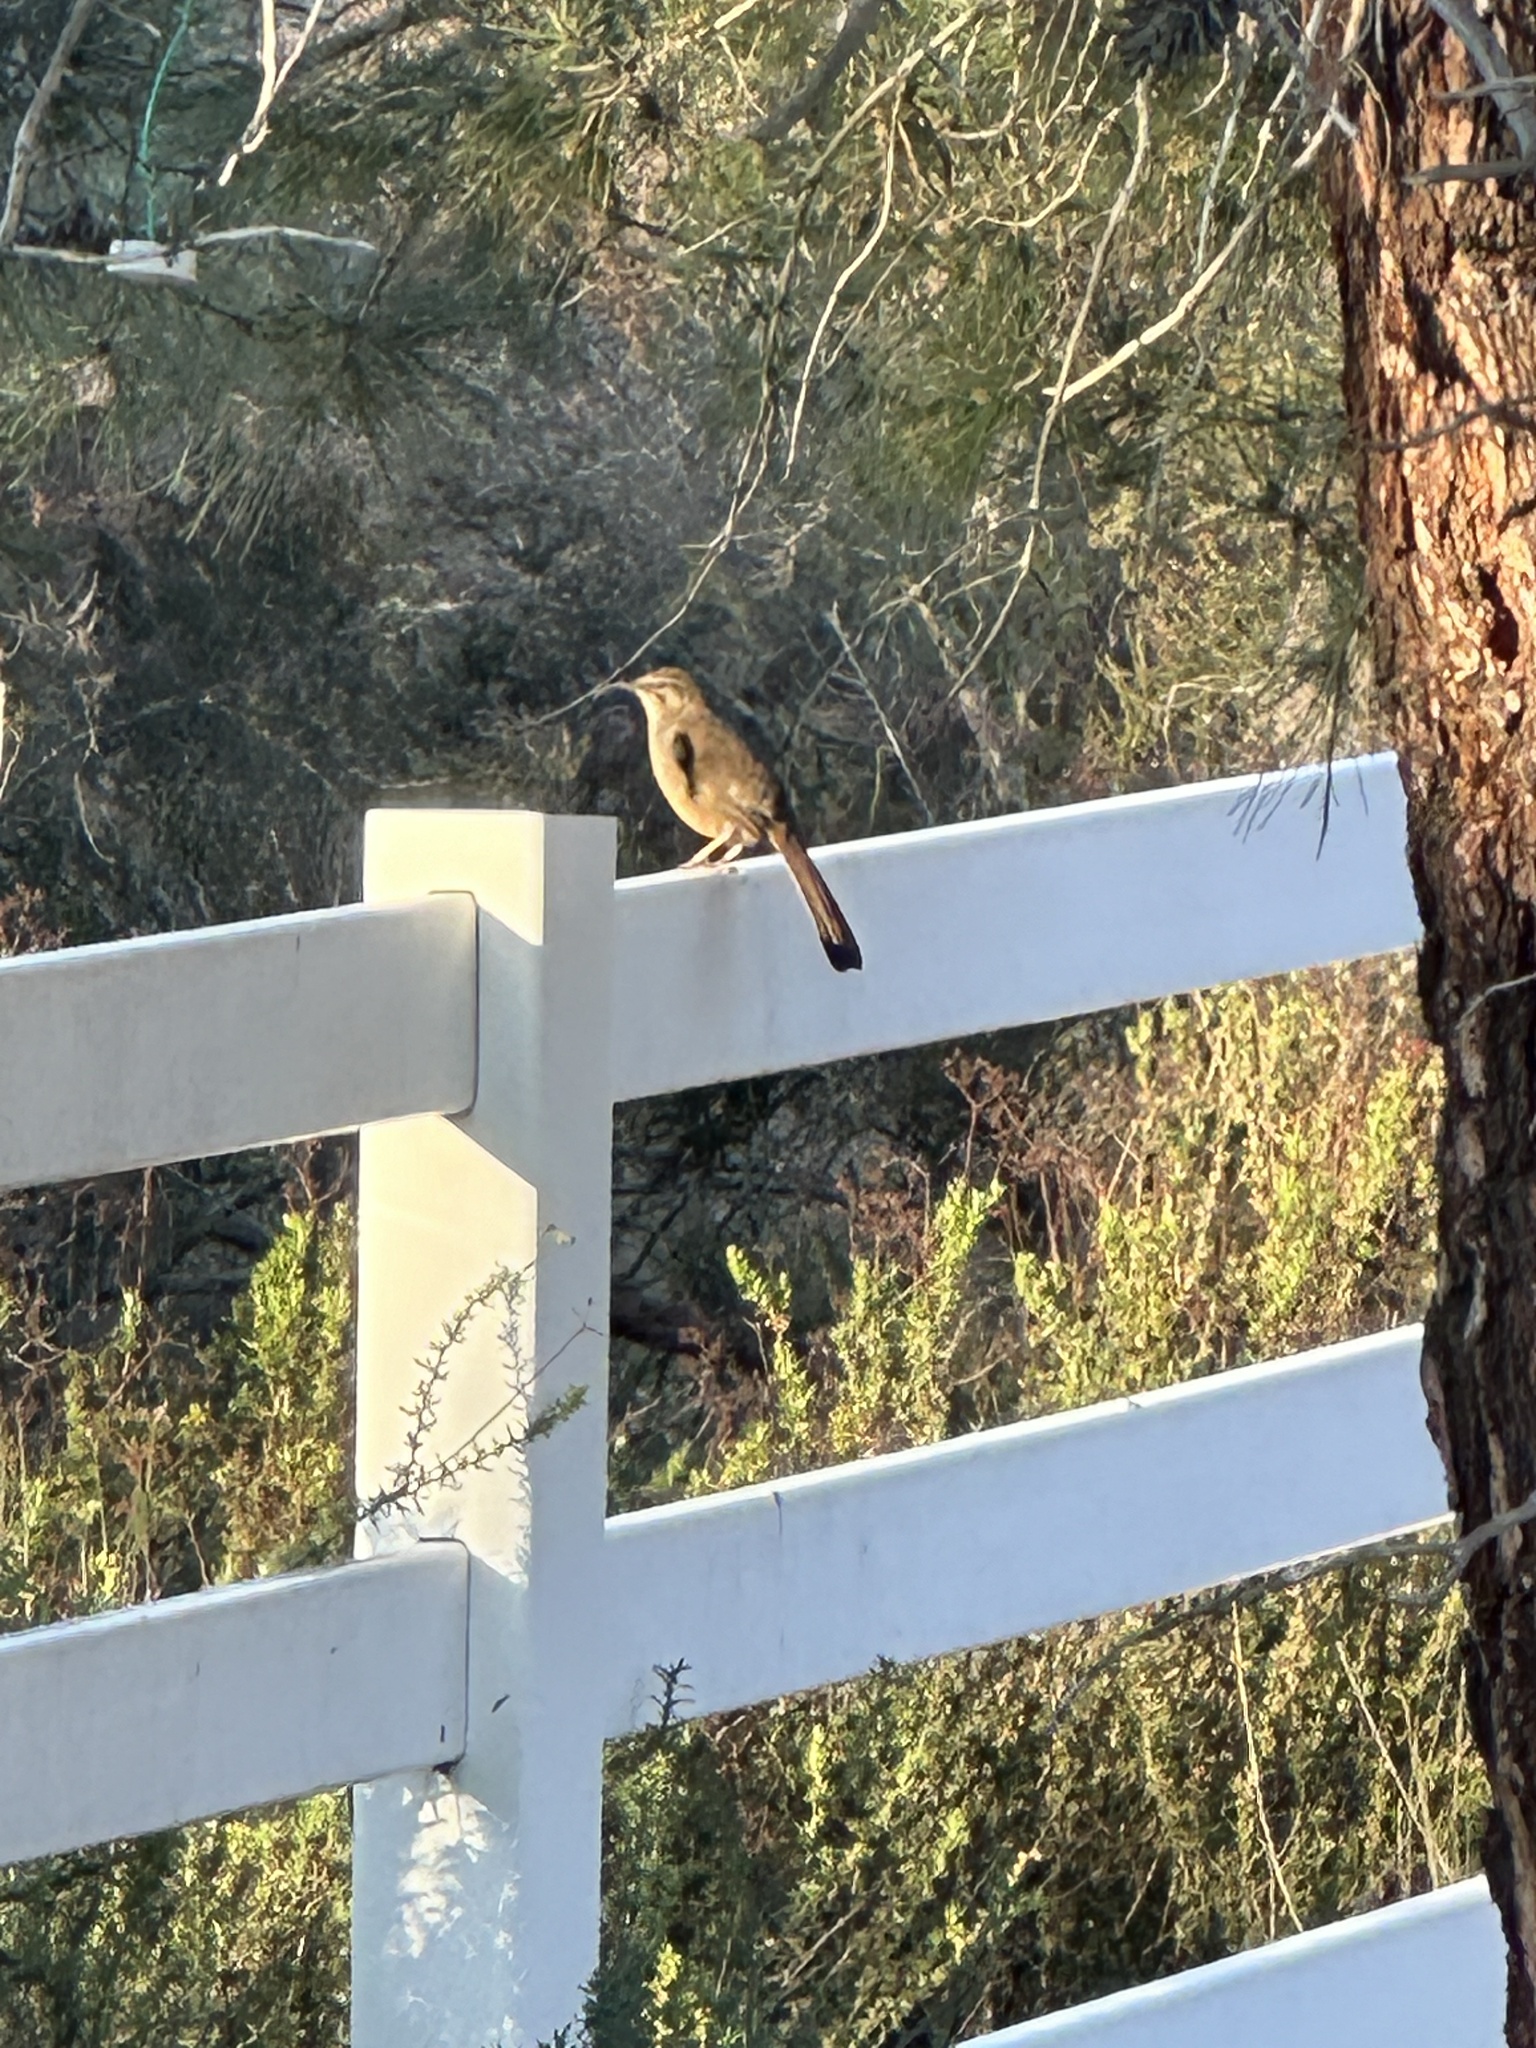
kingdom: Animalia
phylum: Chordata
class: Aves
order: Passeriformes
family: Mimidae
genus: Toxostoma
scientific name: Toxostoma redivivum
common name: California thrasher
